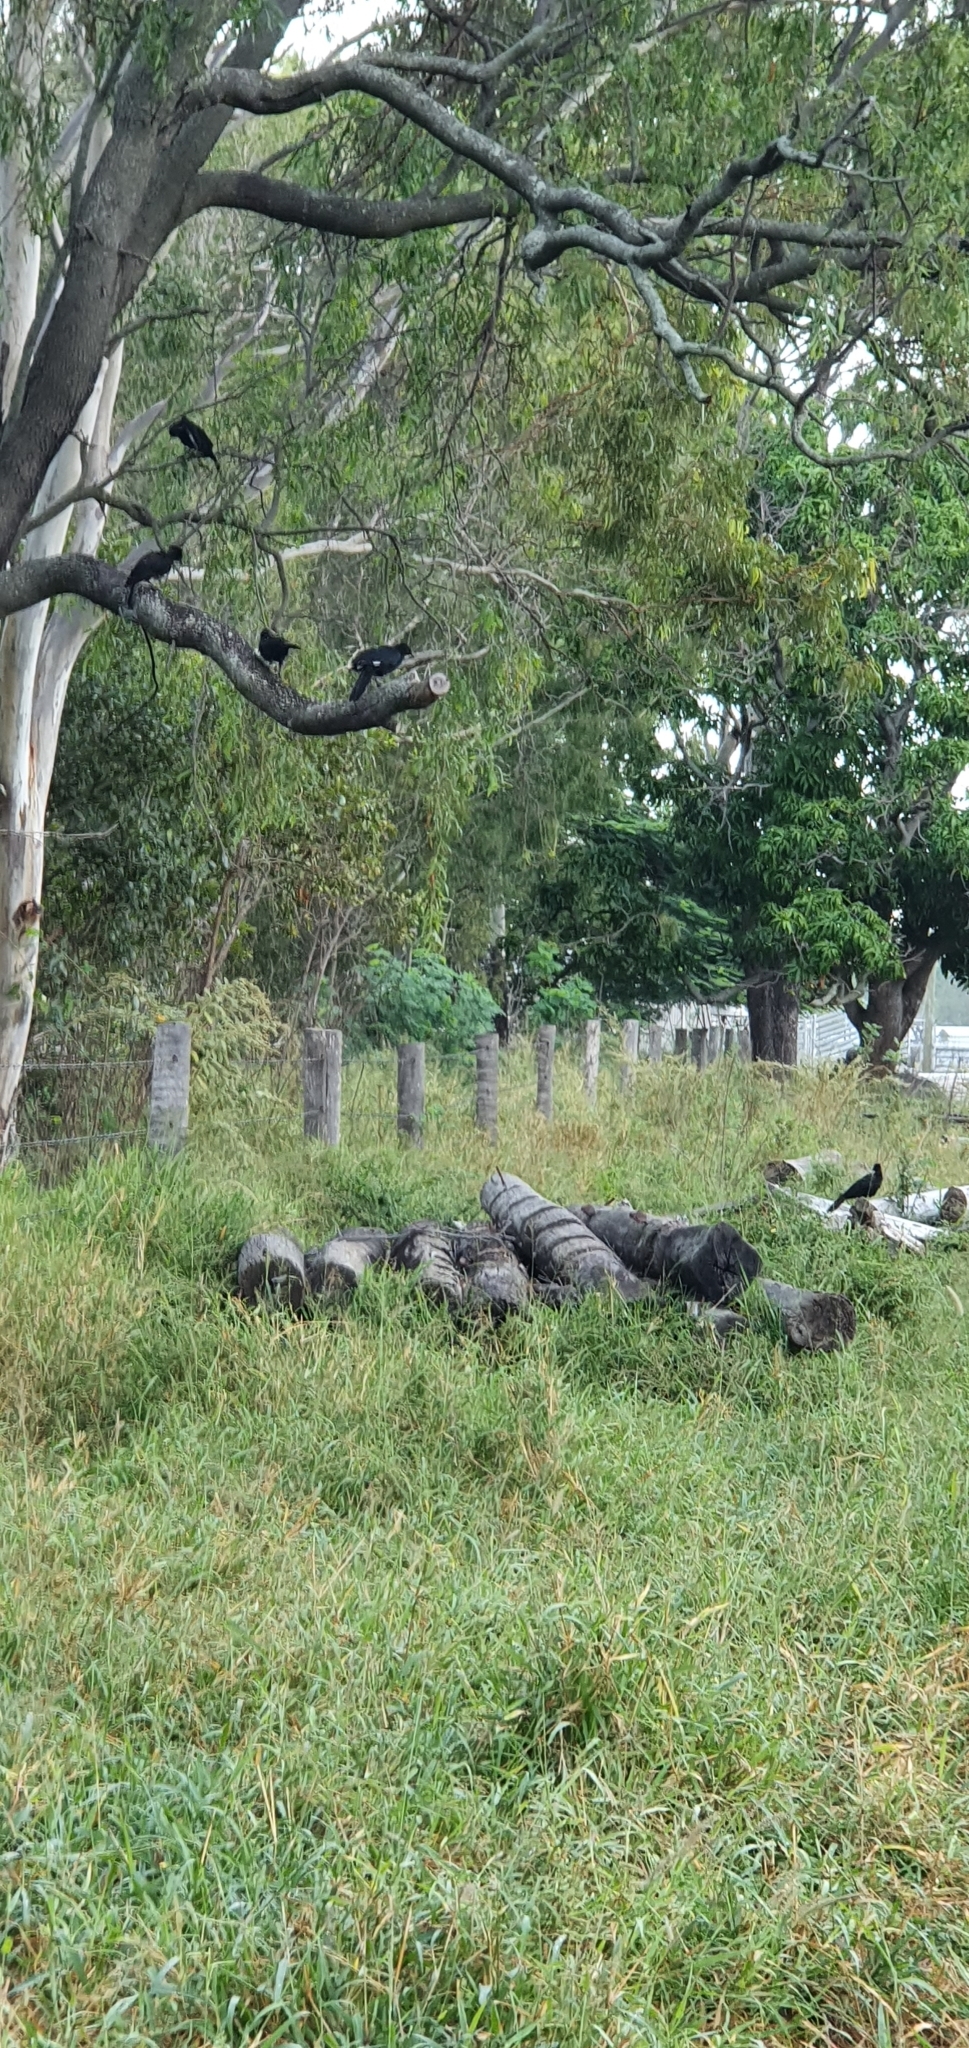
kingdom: Animalia
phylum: Chordata
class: Aves
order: Passeriformes
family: Corcoracidae
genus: Corcorax
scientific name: Corcorax melanoramphos
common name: White-winged chough
